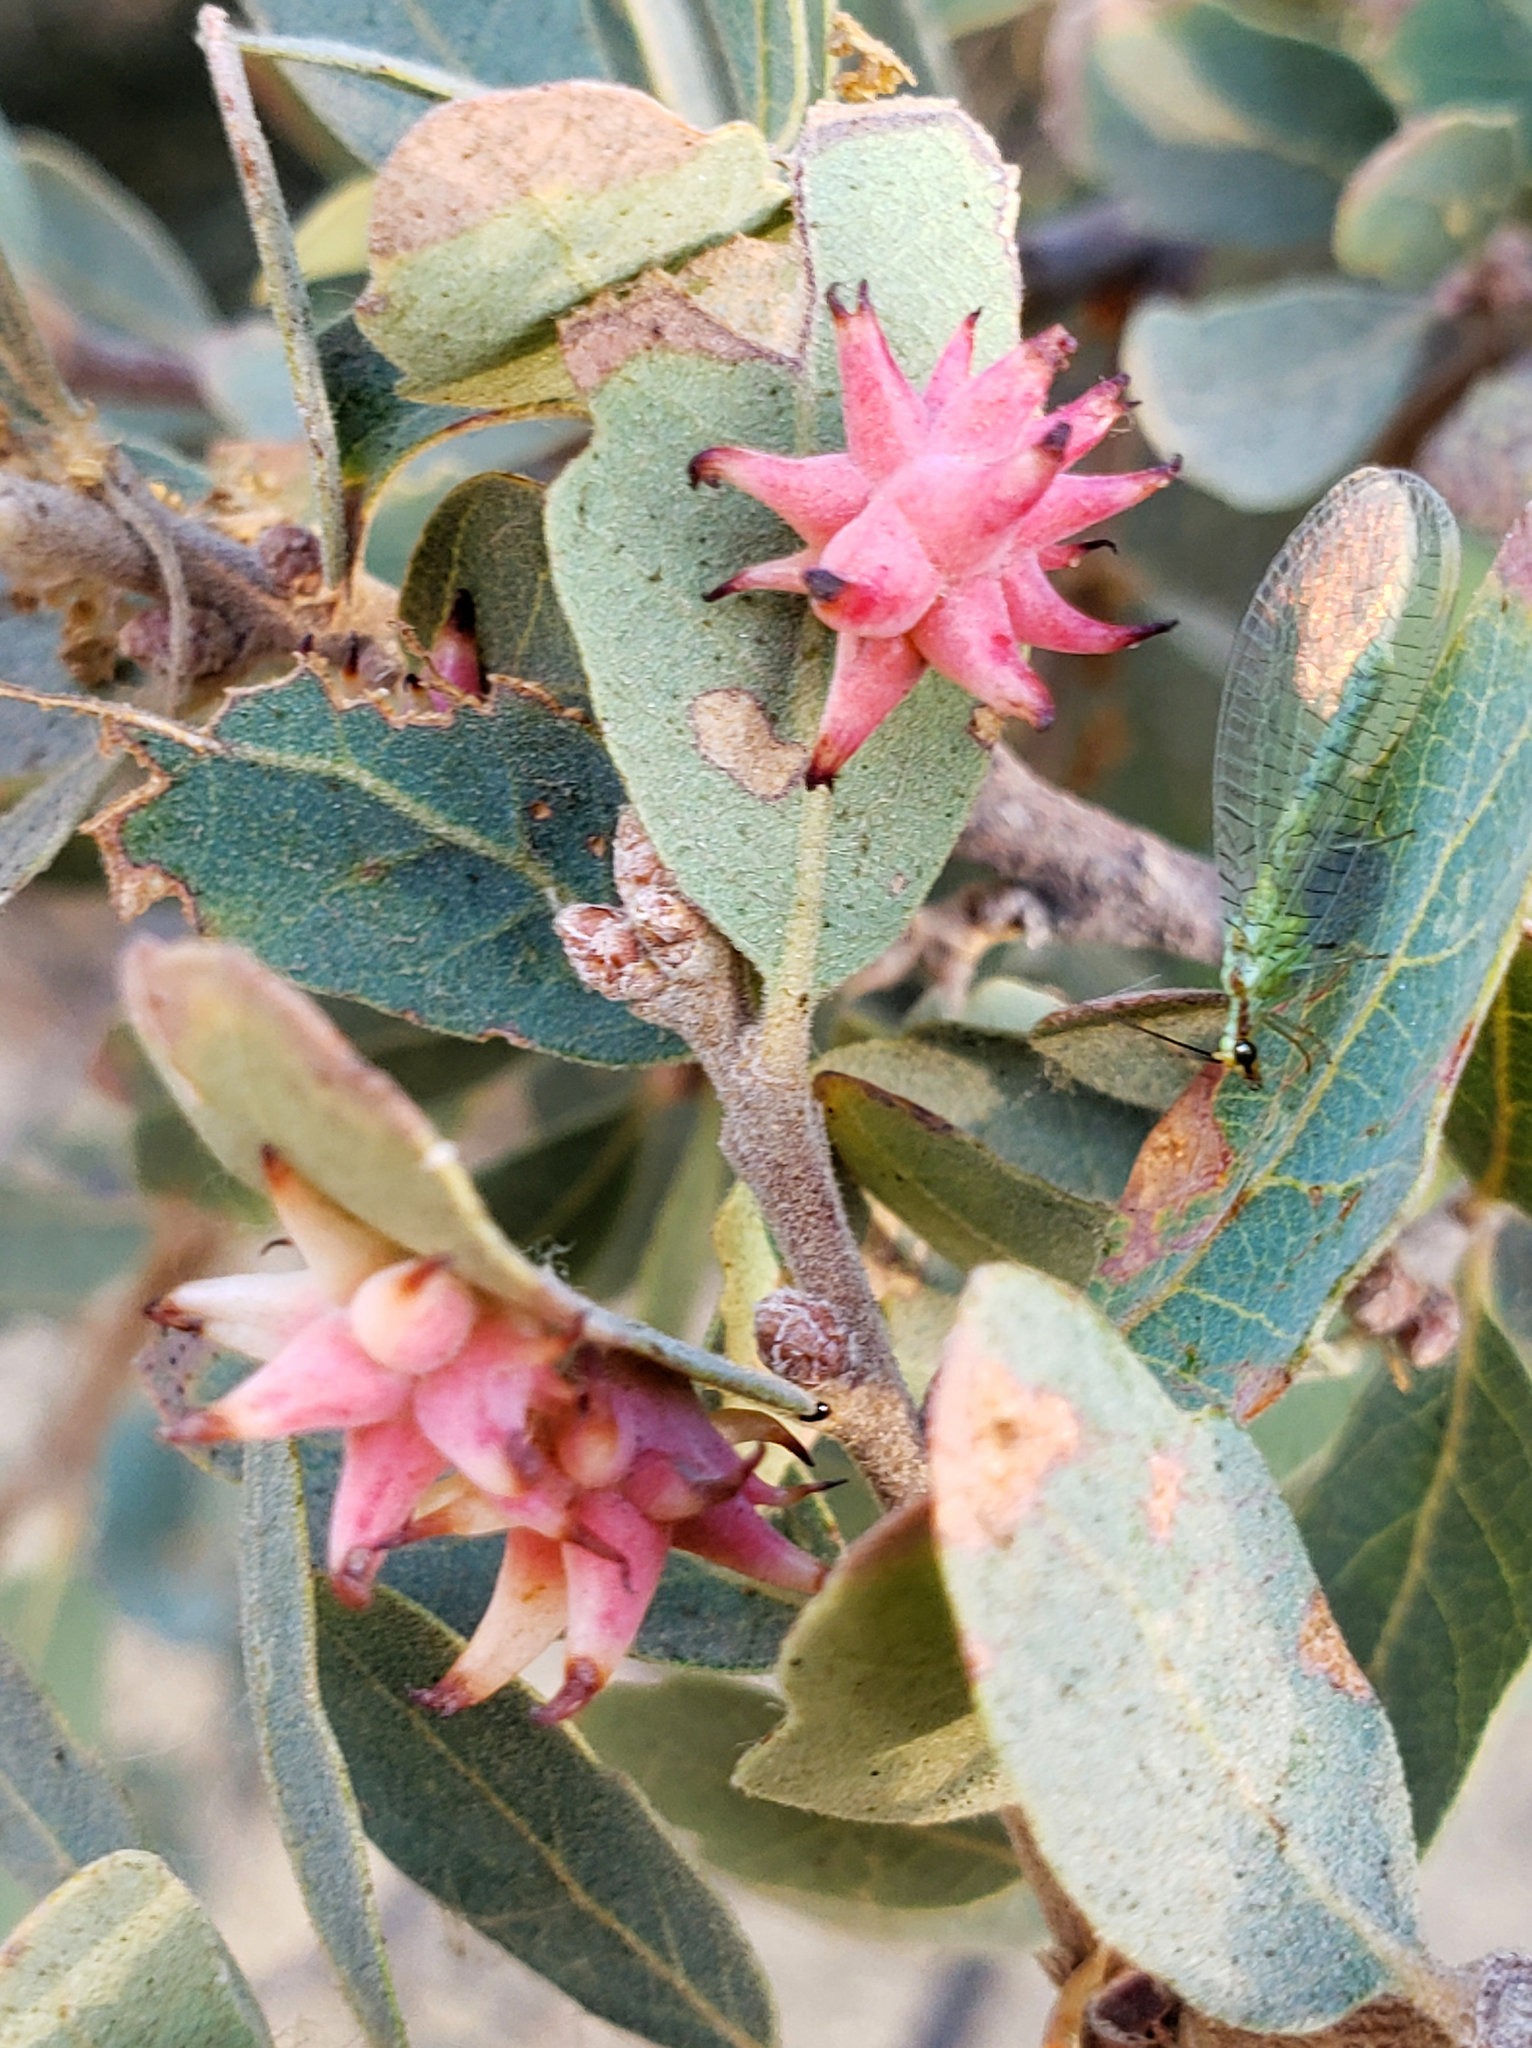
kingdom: Animalia
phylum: Arthropoda
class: Insecta
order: Hymenoptera
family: Cynipidae
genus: Cynips
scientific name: Cynips
